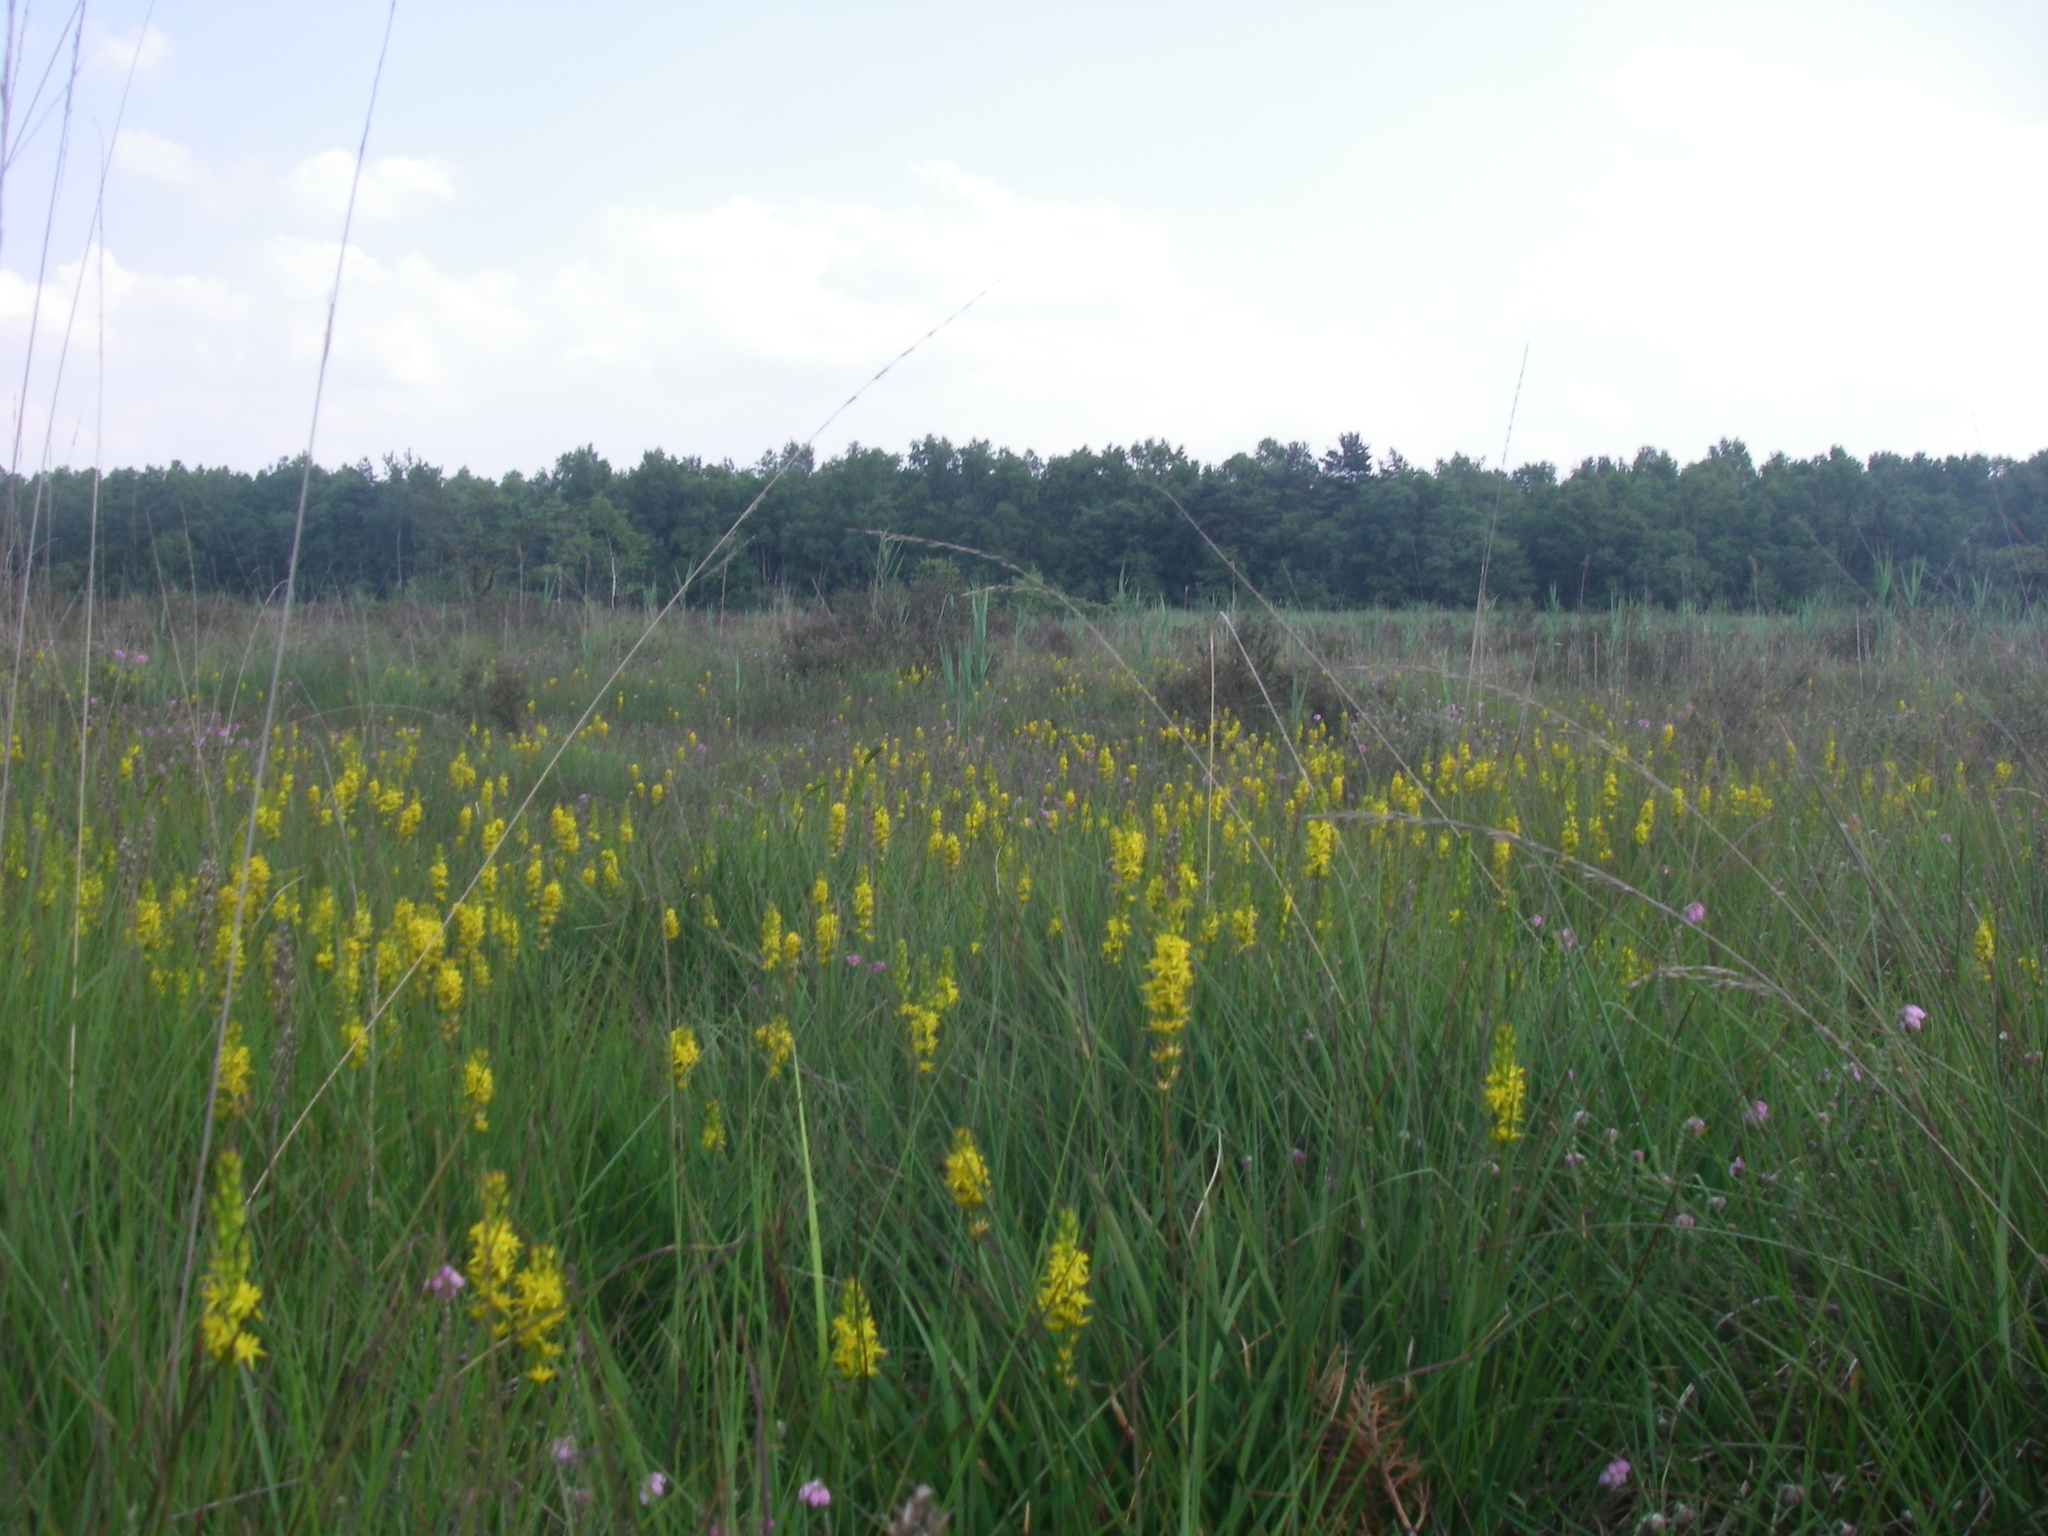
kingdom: Plantae
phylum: Tracheophyta
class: Liliopsida
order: Dioscoreales
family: Nartheciaceae
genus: Narthecium
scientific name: Narthecium ossifragum
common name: Bog asphodel
